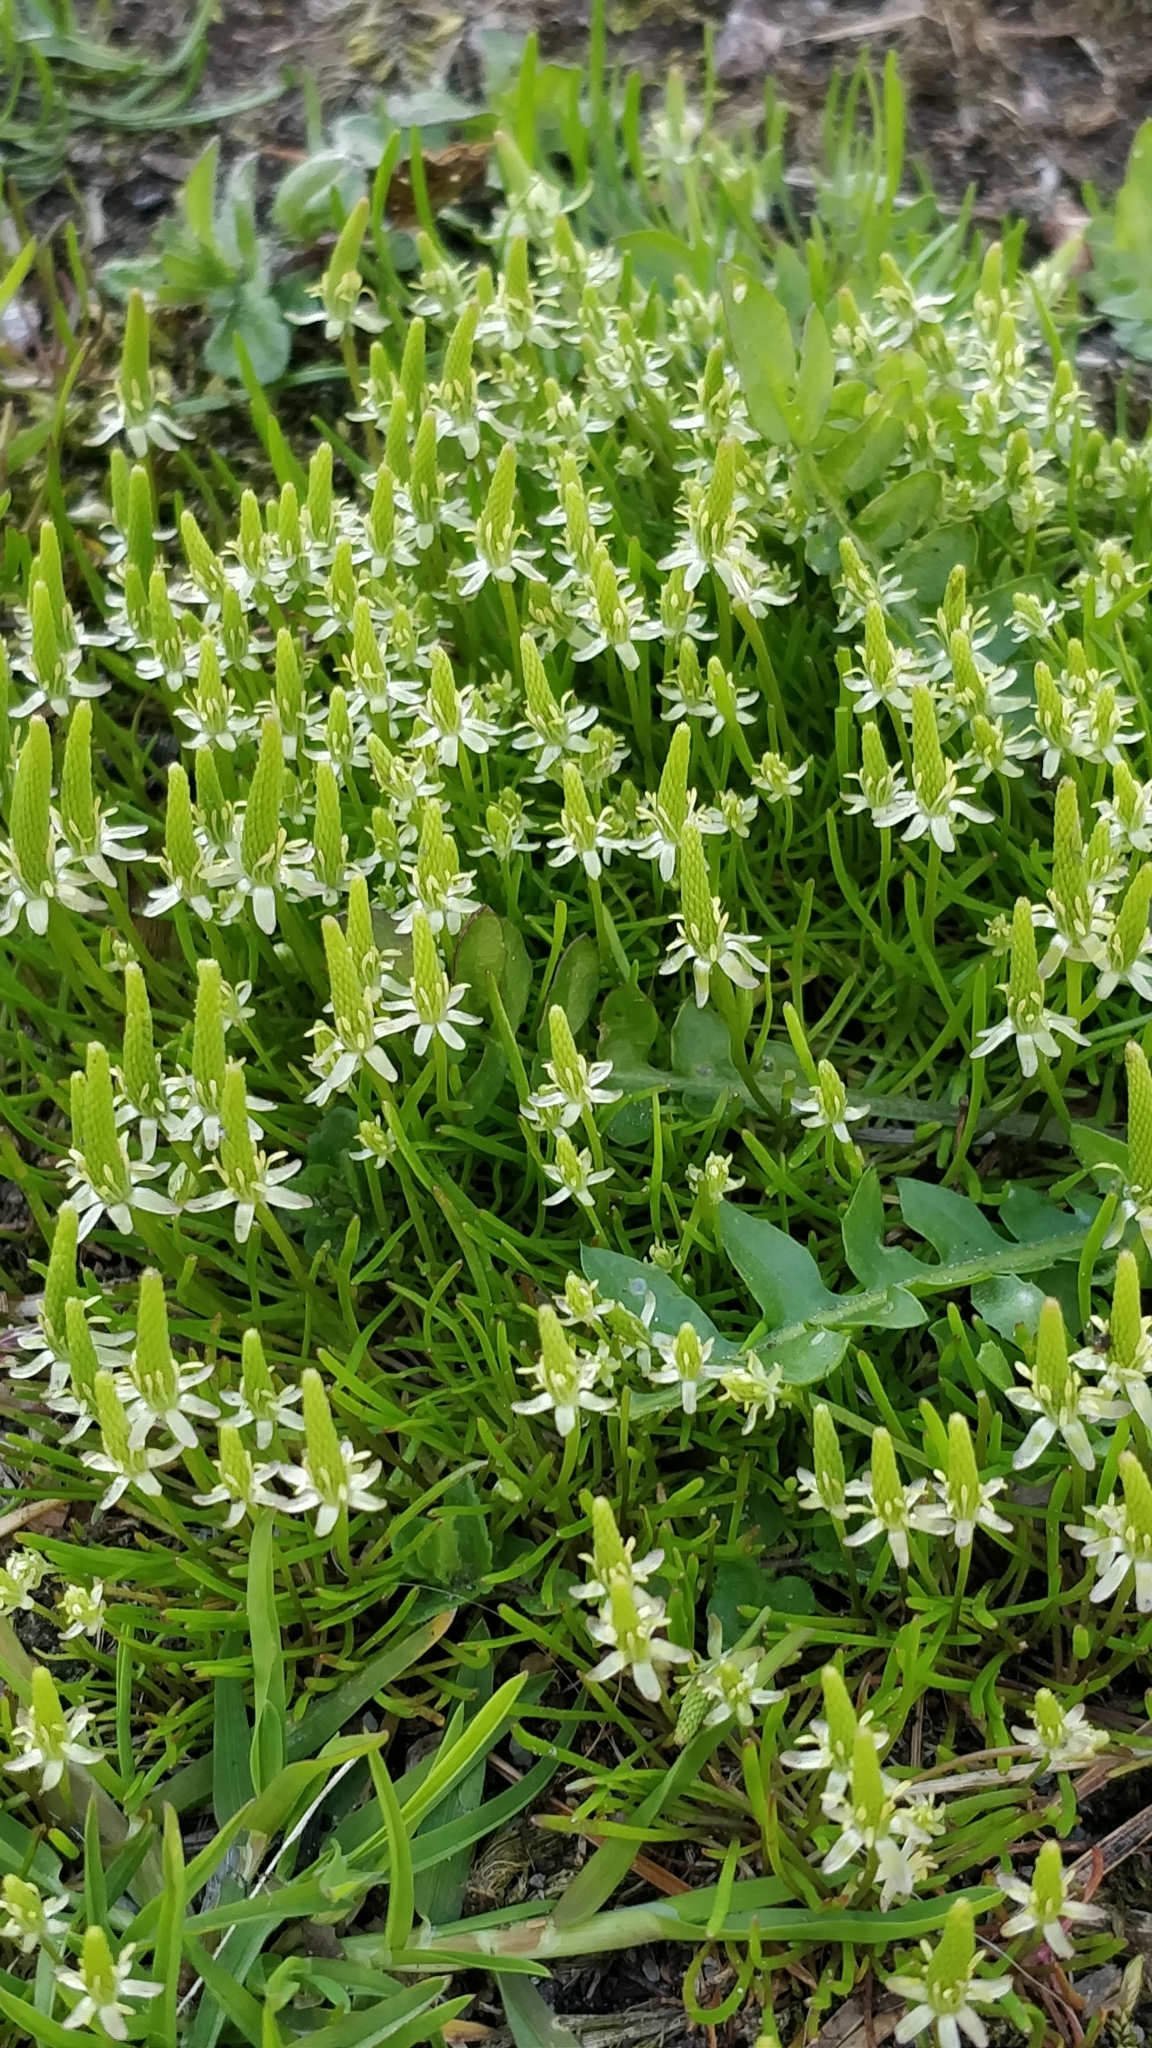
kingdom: Plantae
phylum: Tracheophyta
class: Magnoliopsida
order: Ranunculales
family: Ranunculaceae
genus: Myosurus
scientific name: Myosurus minimus
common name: Mousetail
